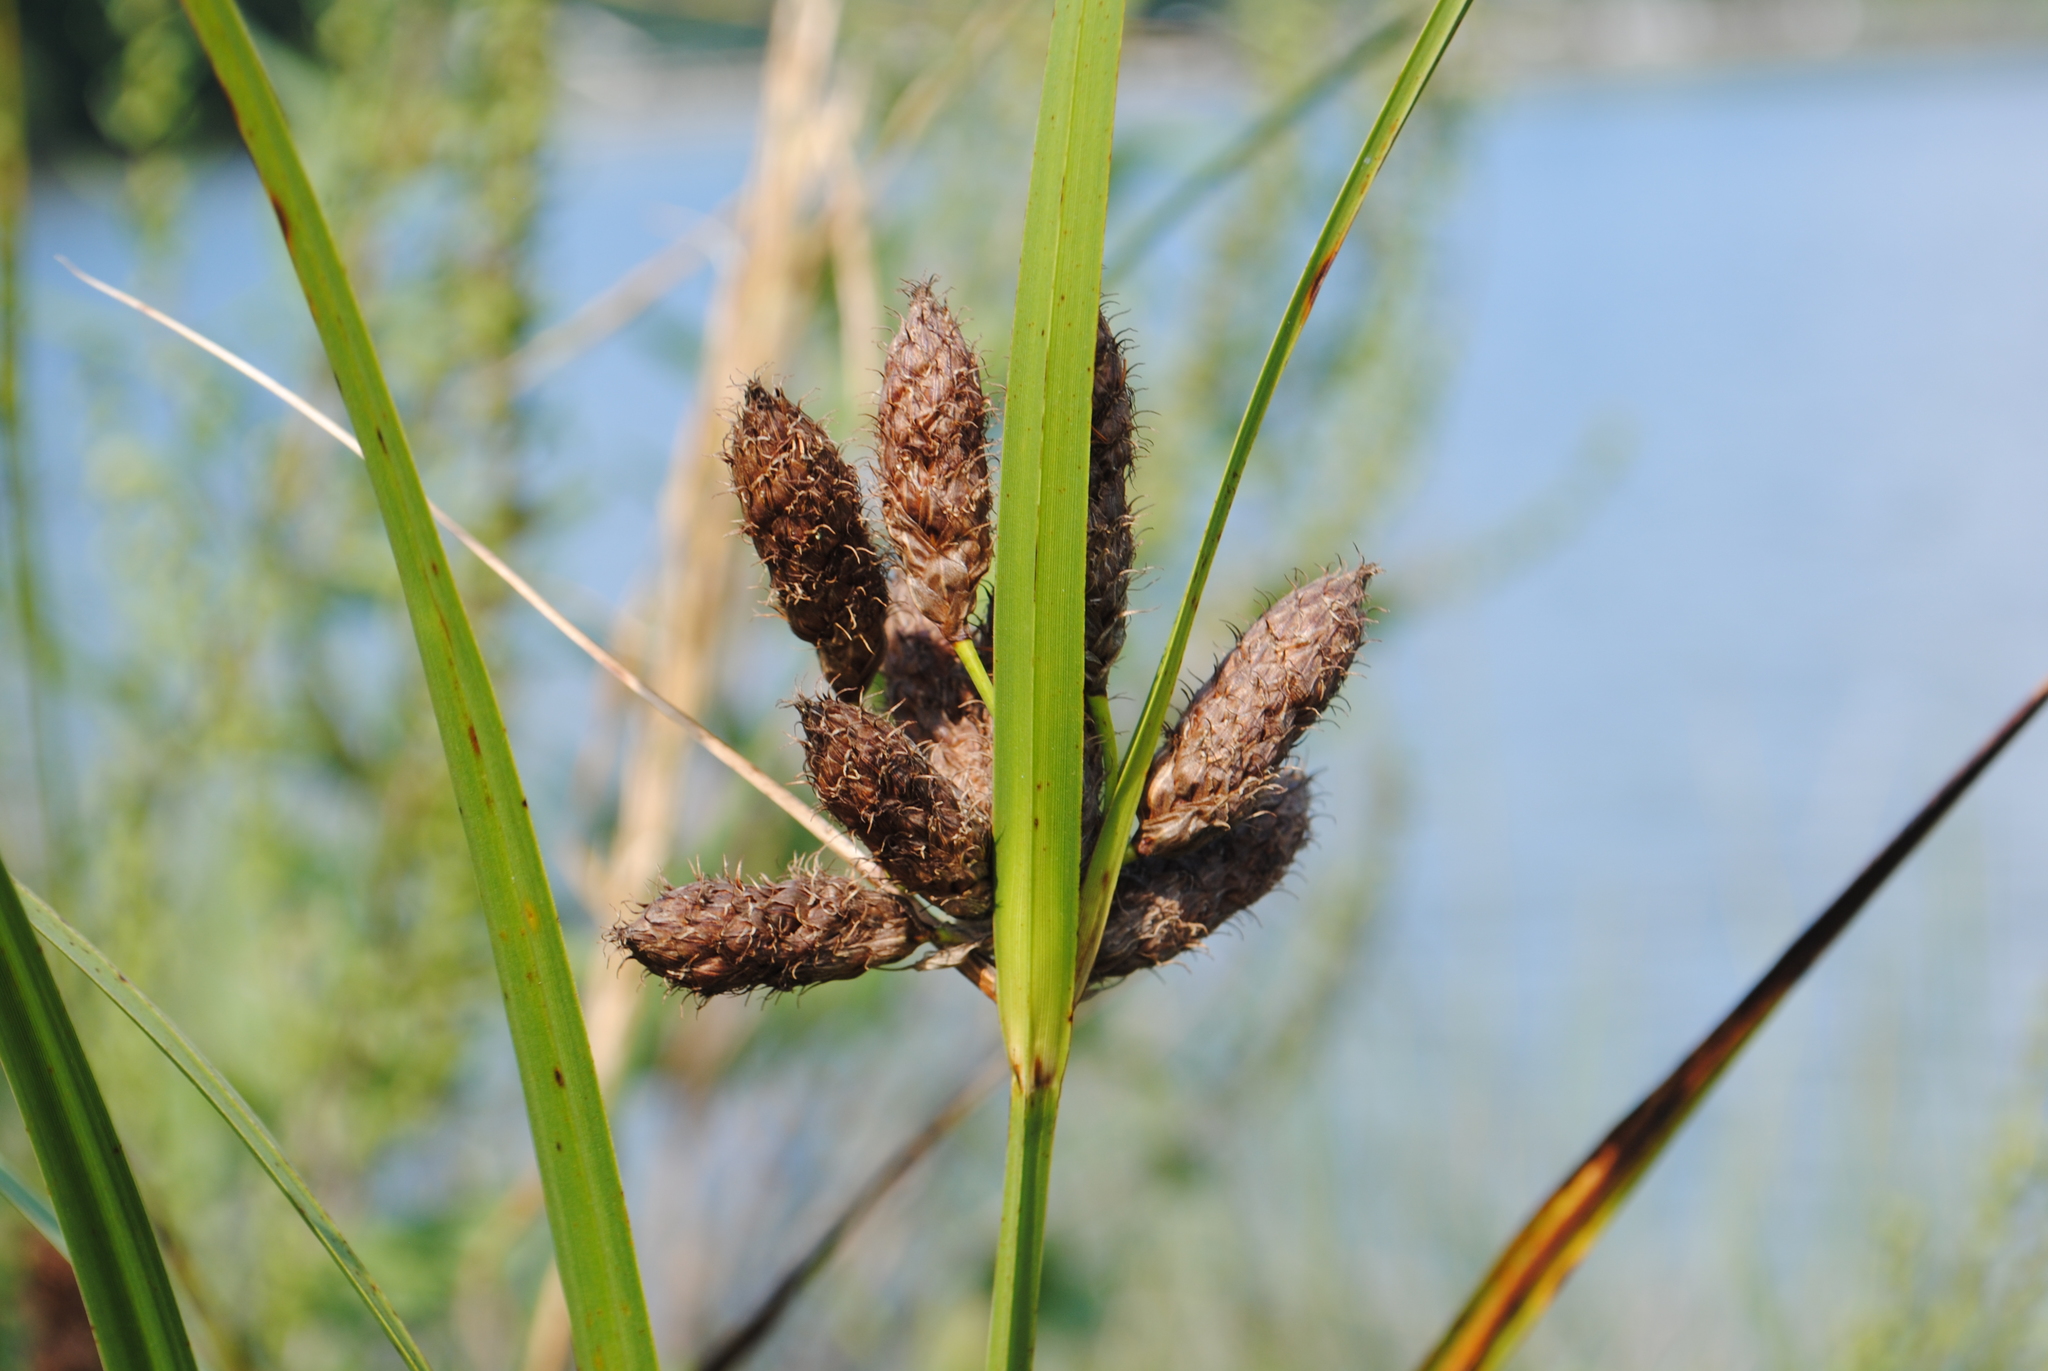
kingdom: Plantae
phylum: Tracheophyta
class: Liliopsida
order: Poales
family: Cyperaceae
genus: Bolboschoenus
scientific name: Bolboschoenus robustus
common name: Seacoast bulrush
